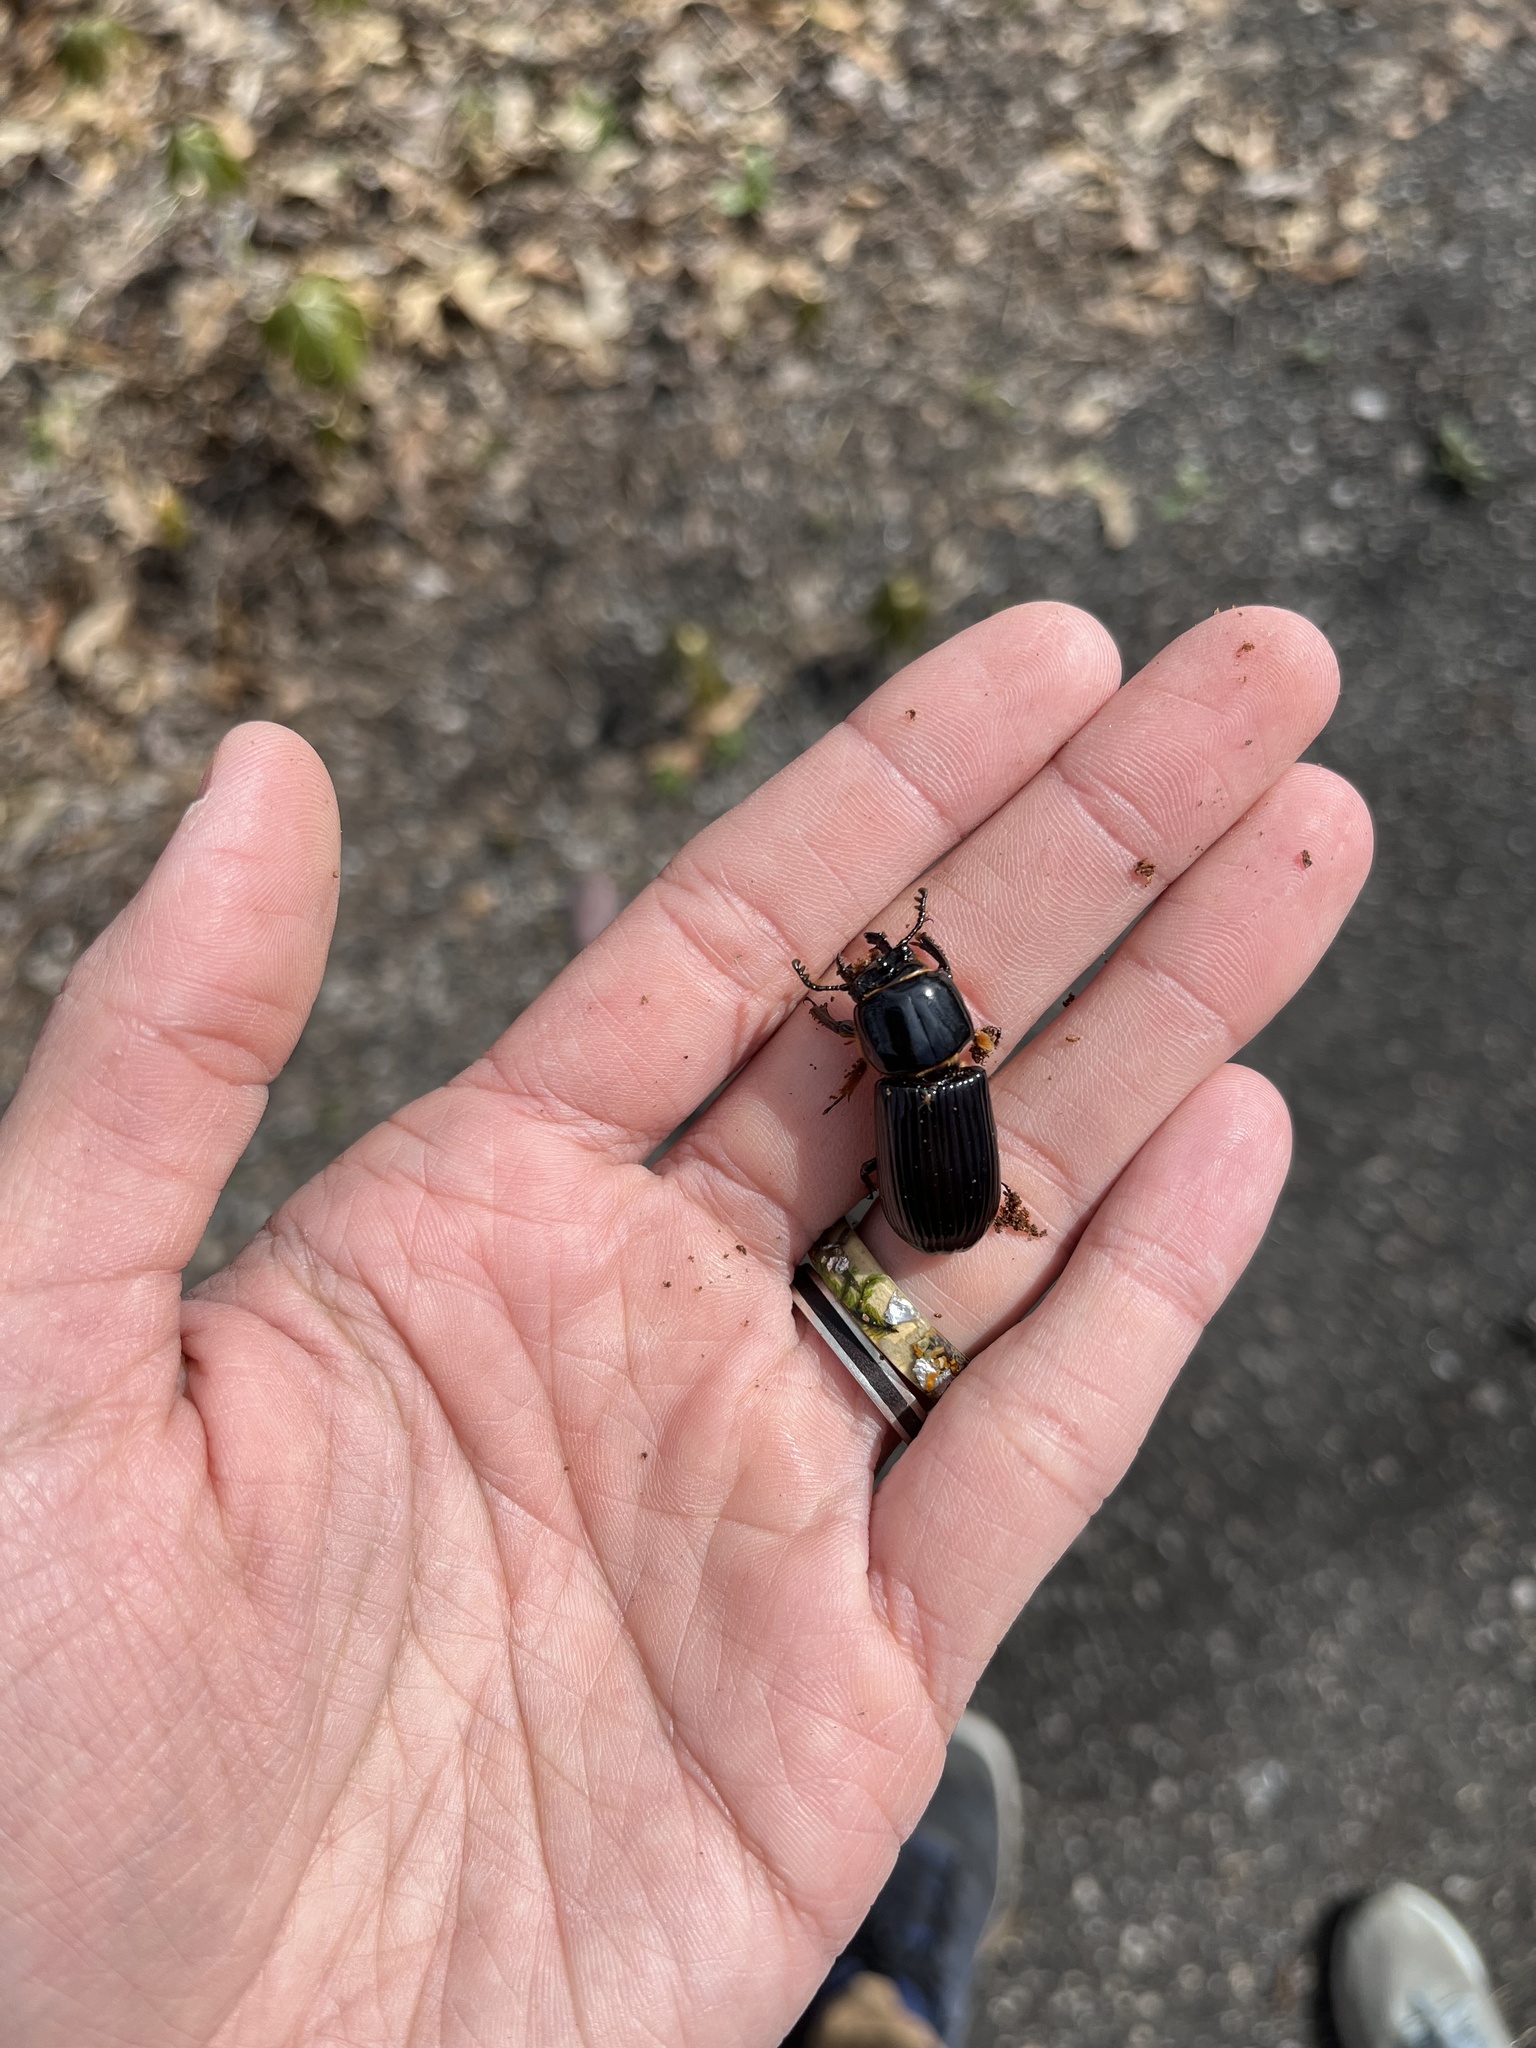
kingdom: Animalia
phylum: Arthropoda
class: Insecta
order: Coleoptera
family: Passalidae
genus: Odontotaenius
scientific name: Odontotaenius disjunctus
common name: Patent leather beetle
